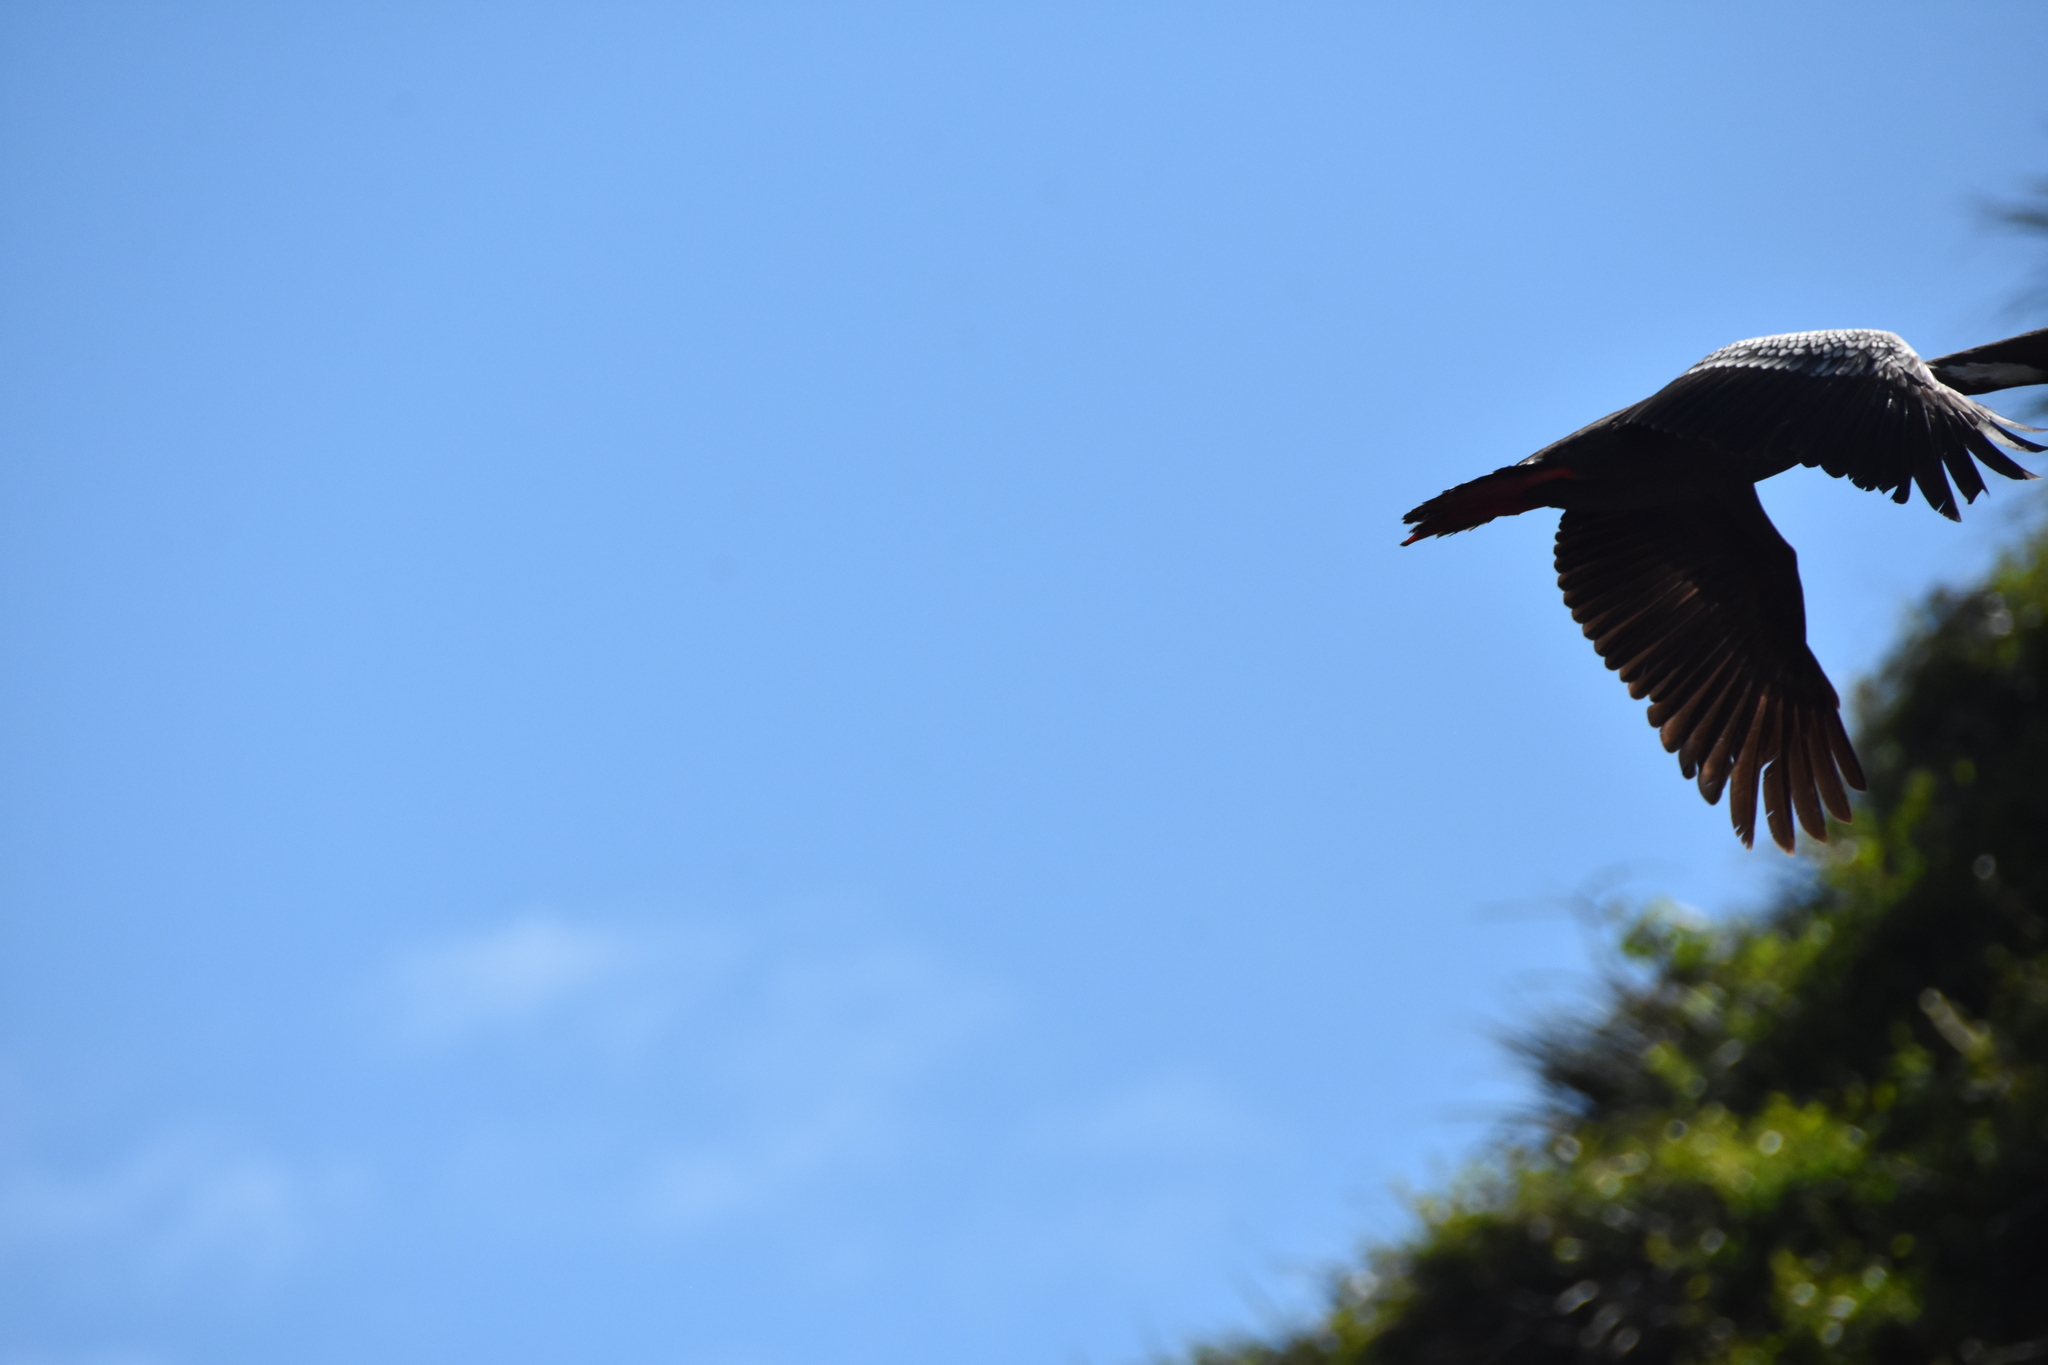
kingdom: Animalia
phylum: Chordata
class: Aves
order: Suliformes
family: Phalacrocoracidae
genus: Phalacrocorax
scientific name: Phalacrocorax gaimardi
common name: Red-legged cormorant
